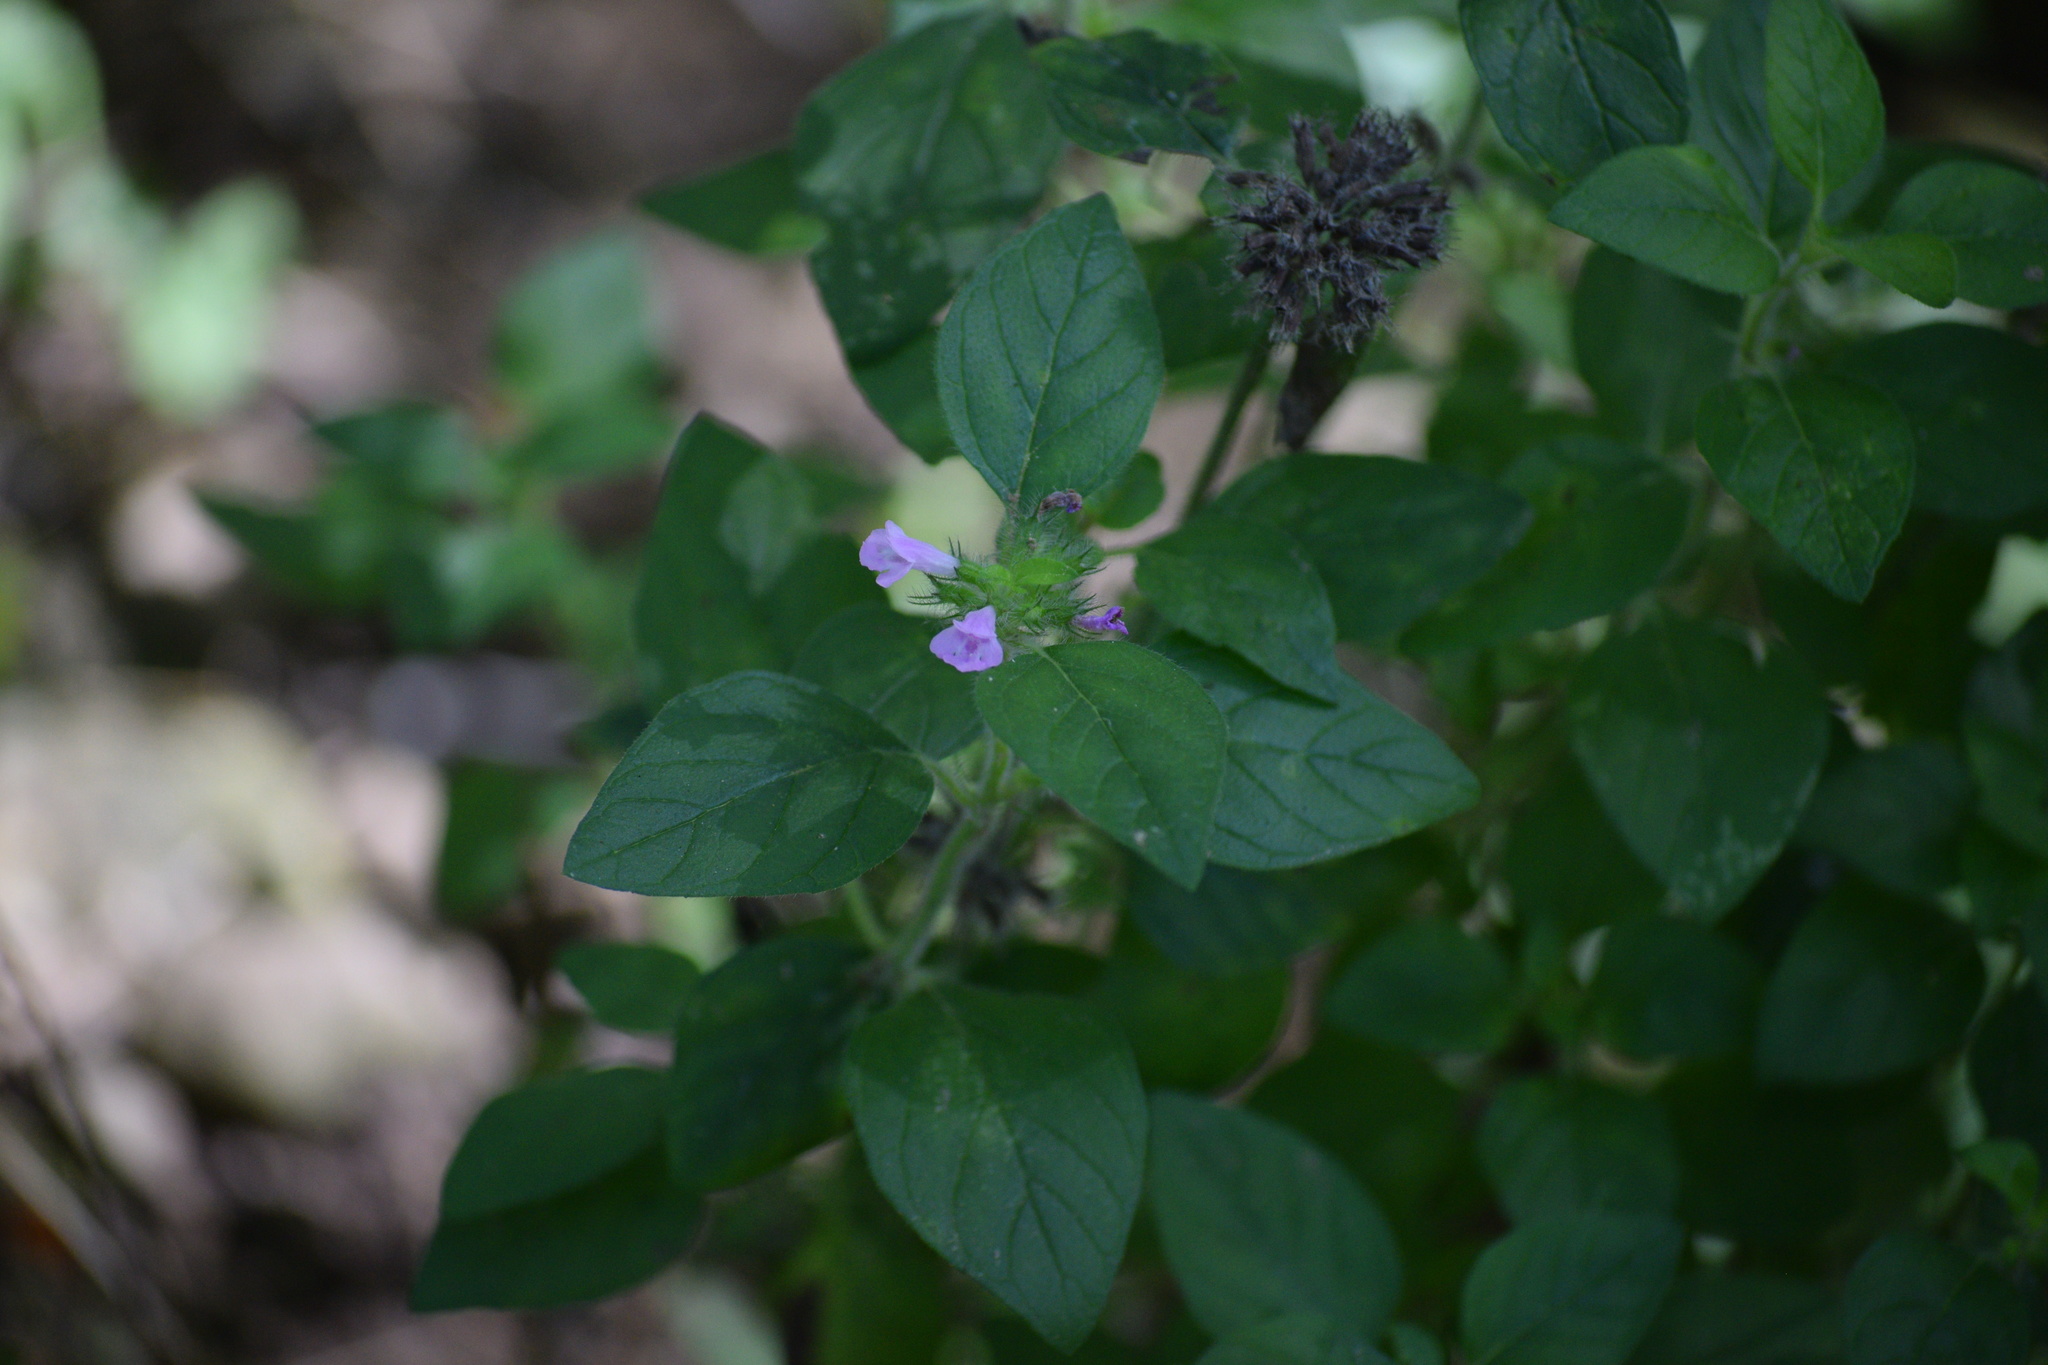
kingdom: Plantae
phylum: Tracheophyta
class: Magnoliopsida
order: Lamiales
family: Lamiaceae
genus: Clinopodium
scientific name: Clinopodium vulgare
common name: Wild basil
